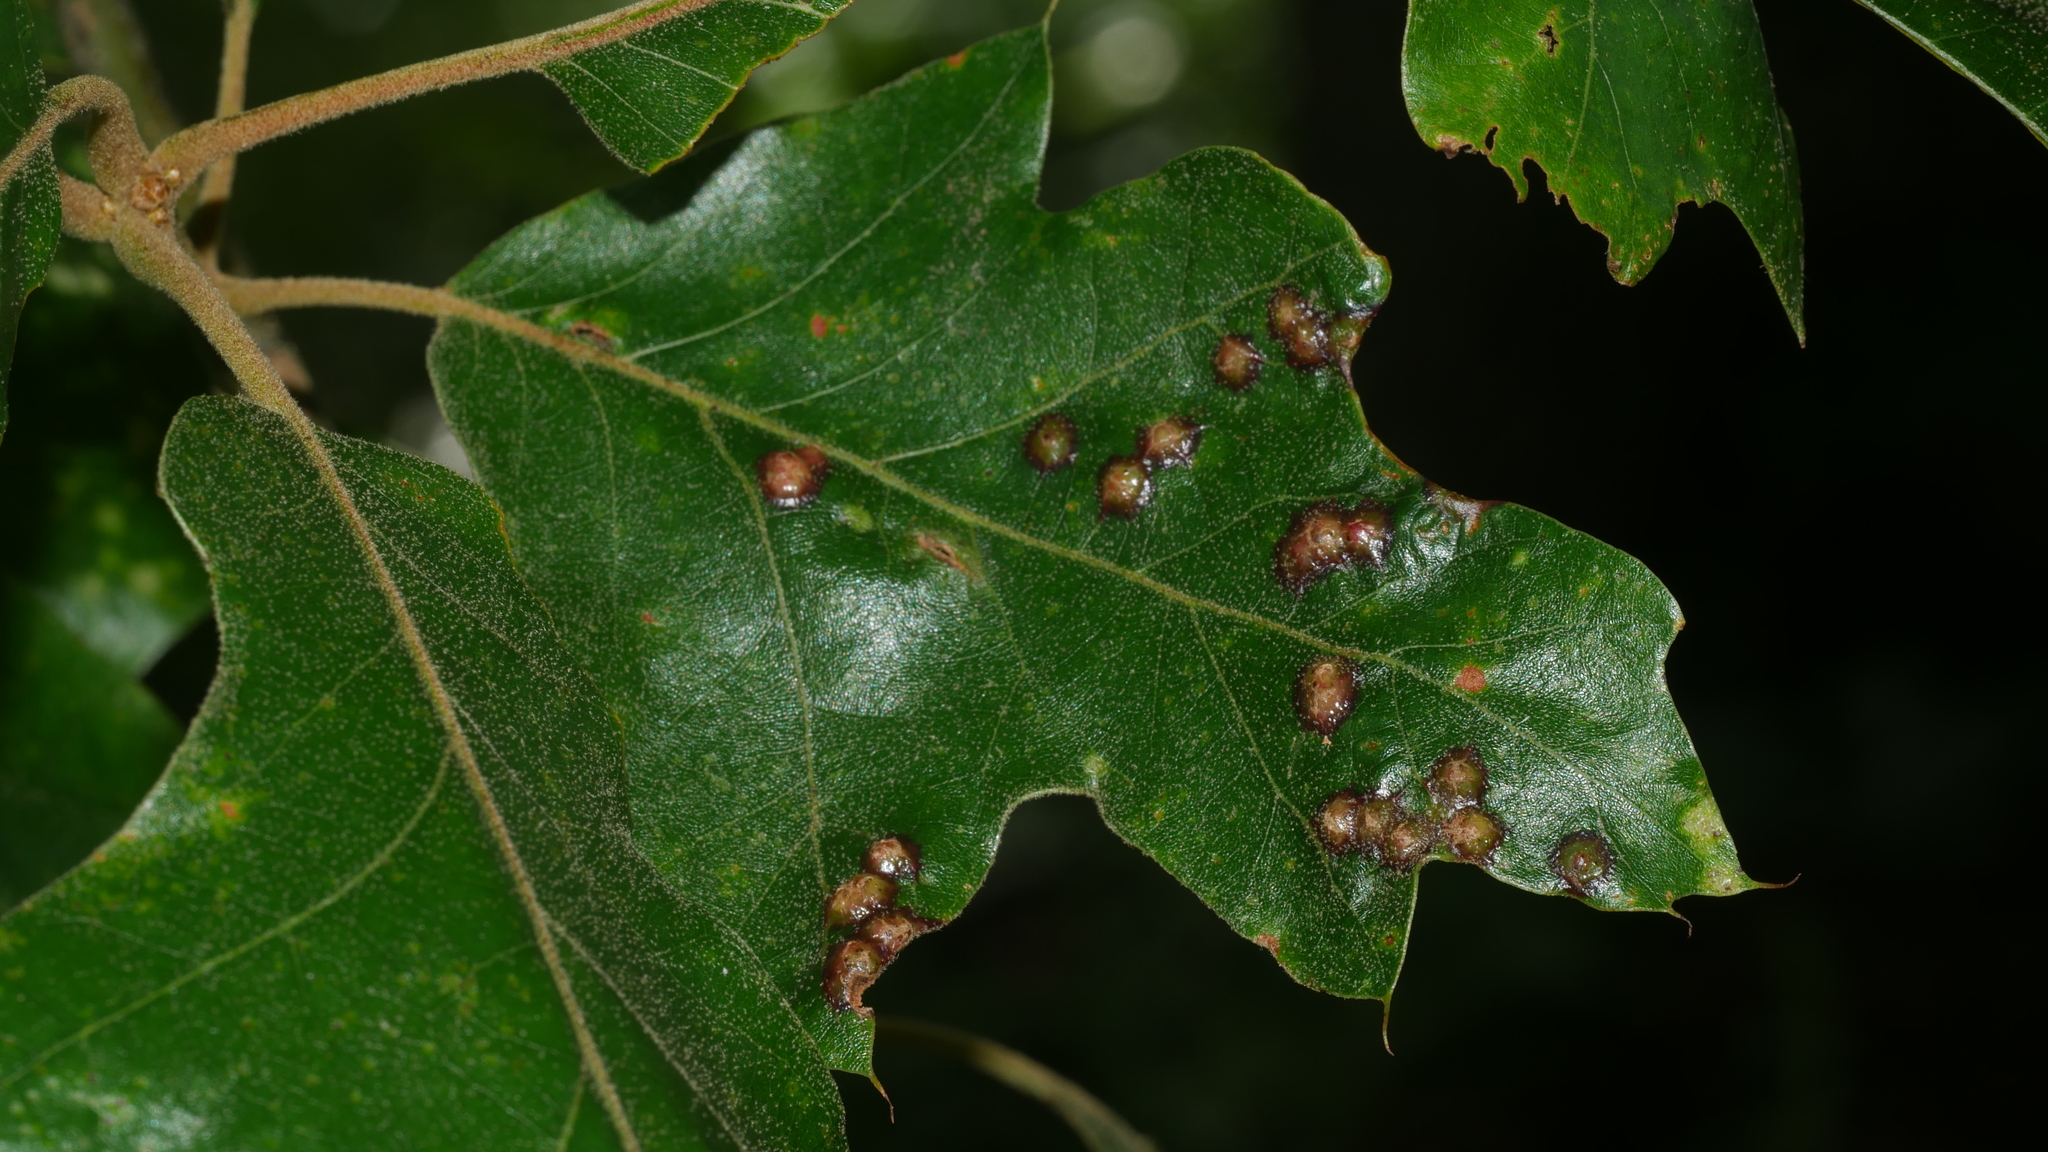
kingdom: Animalia
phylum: Arthropoda
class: Insecta
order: Diptera
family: Cecidomyiidae
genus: Polystepha
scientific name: Polystepha pilulae
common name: Oak leaf gall midge
